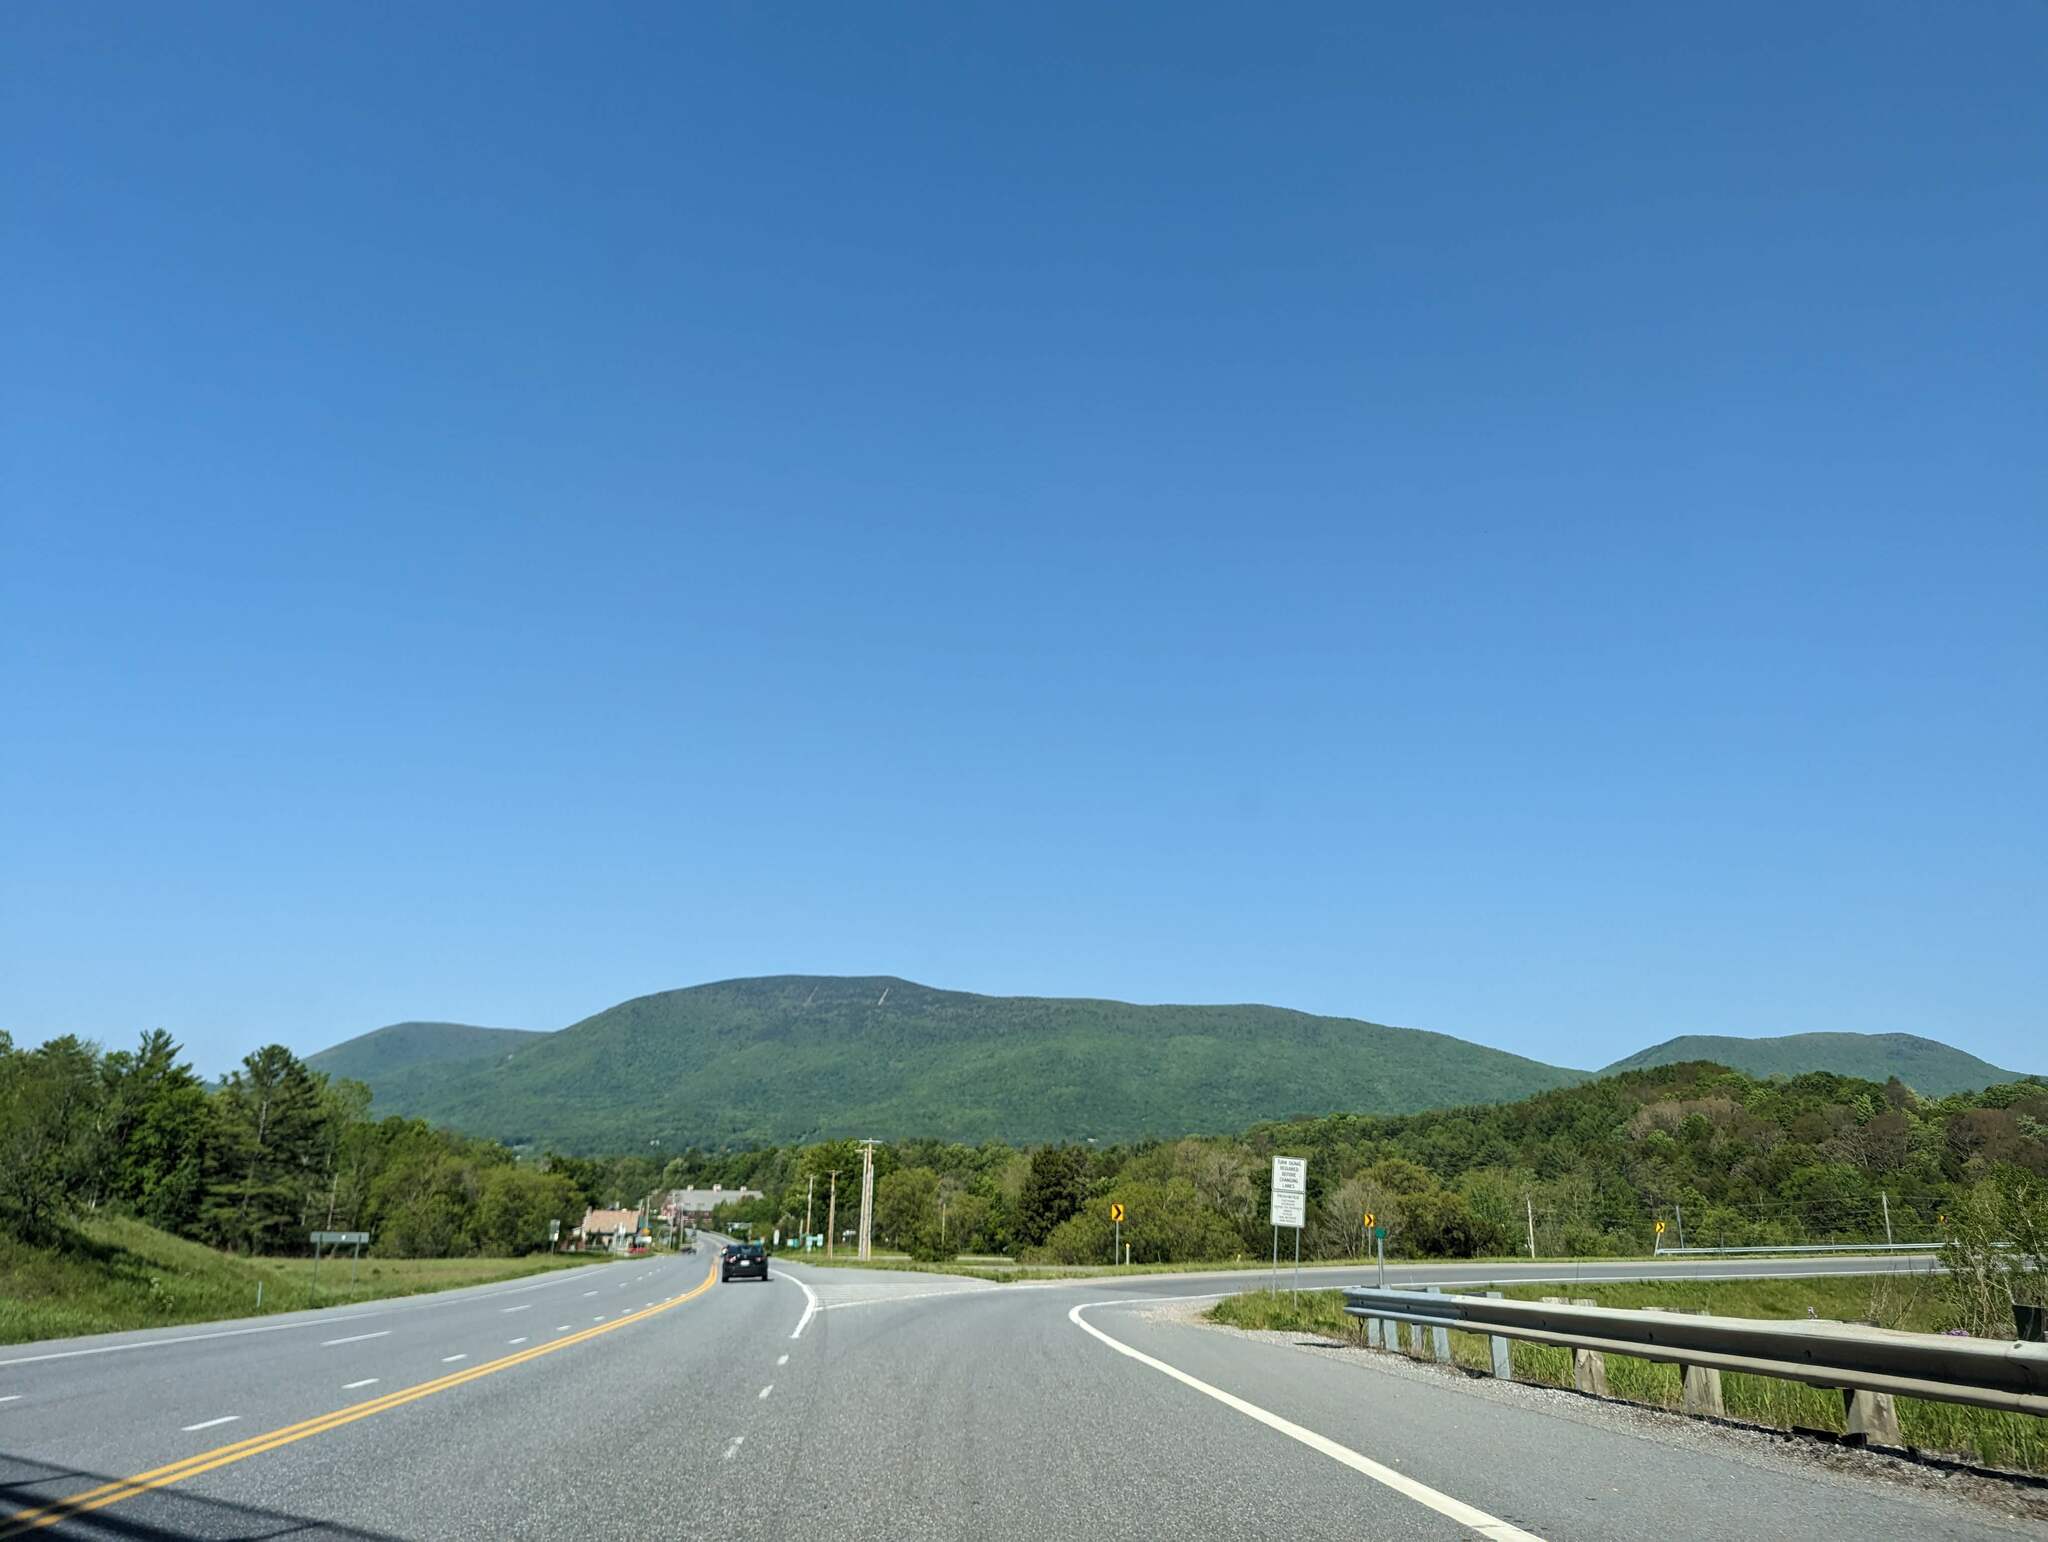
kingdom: Plantae
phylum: Tracheophyta
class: Pinopsida
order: Pinales
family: Pinaceae
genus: Pinus
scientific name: Pinus strobus
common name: Weymouth pine
